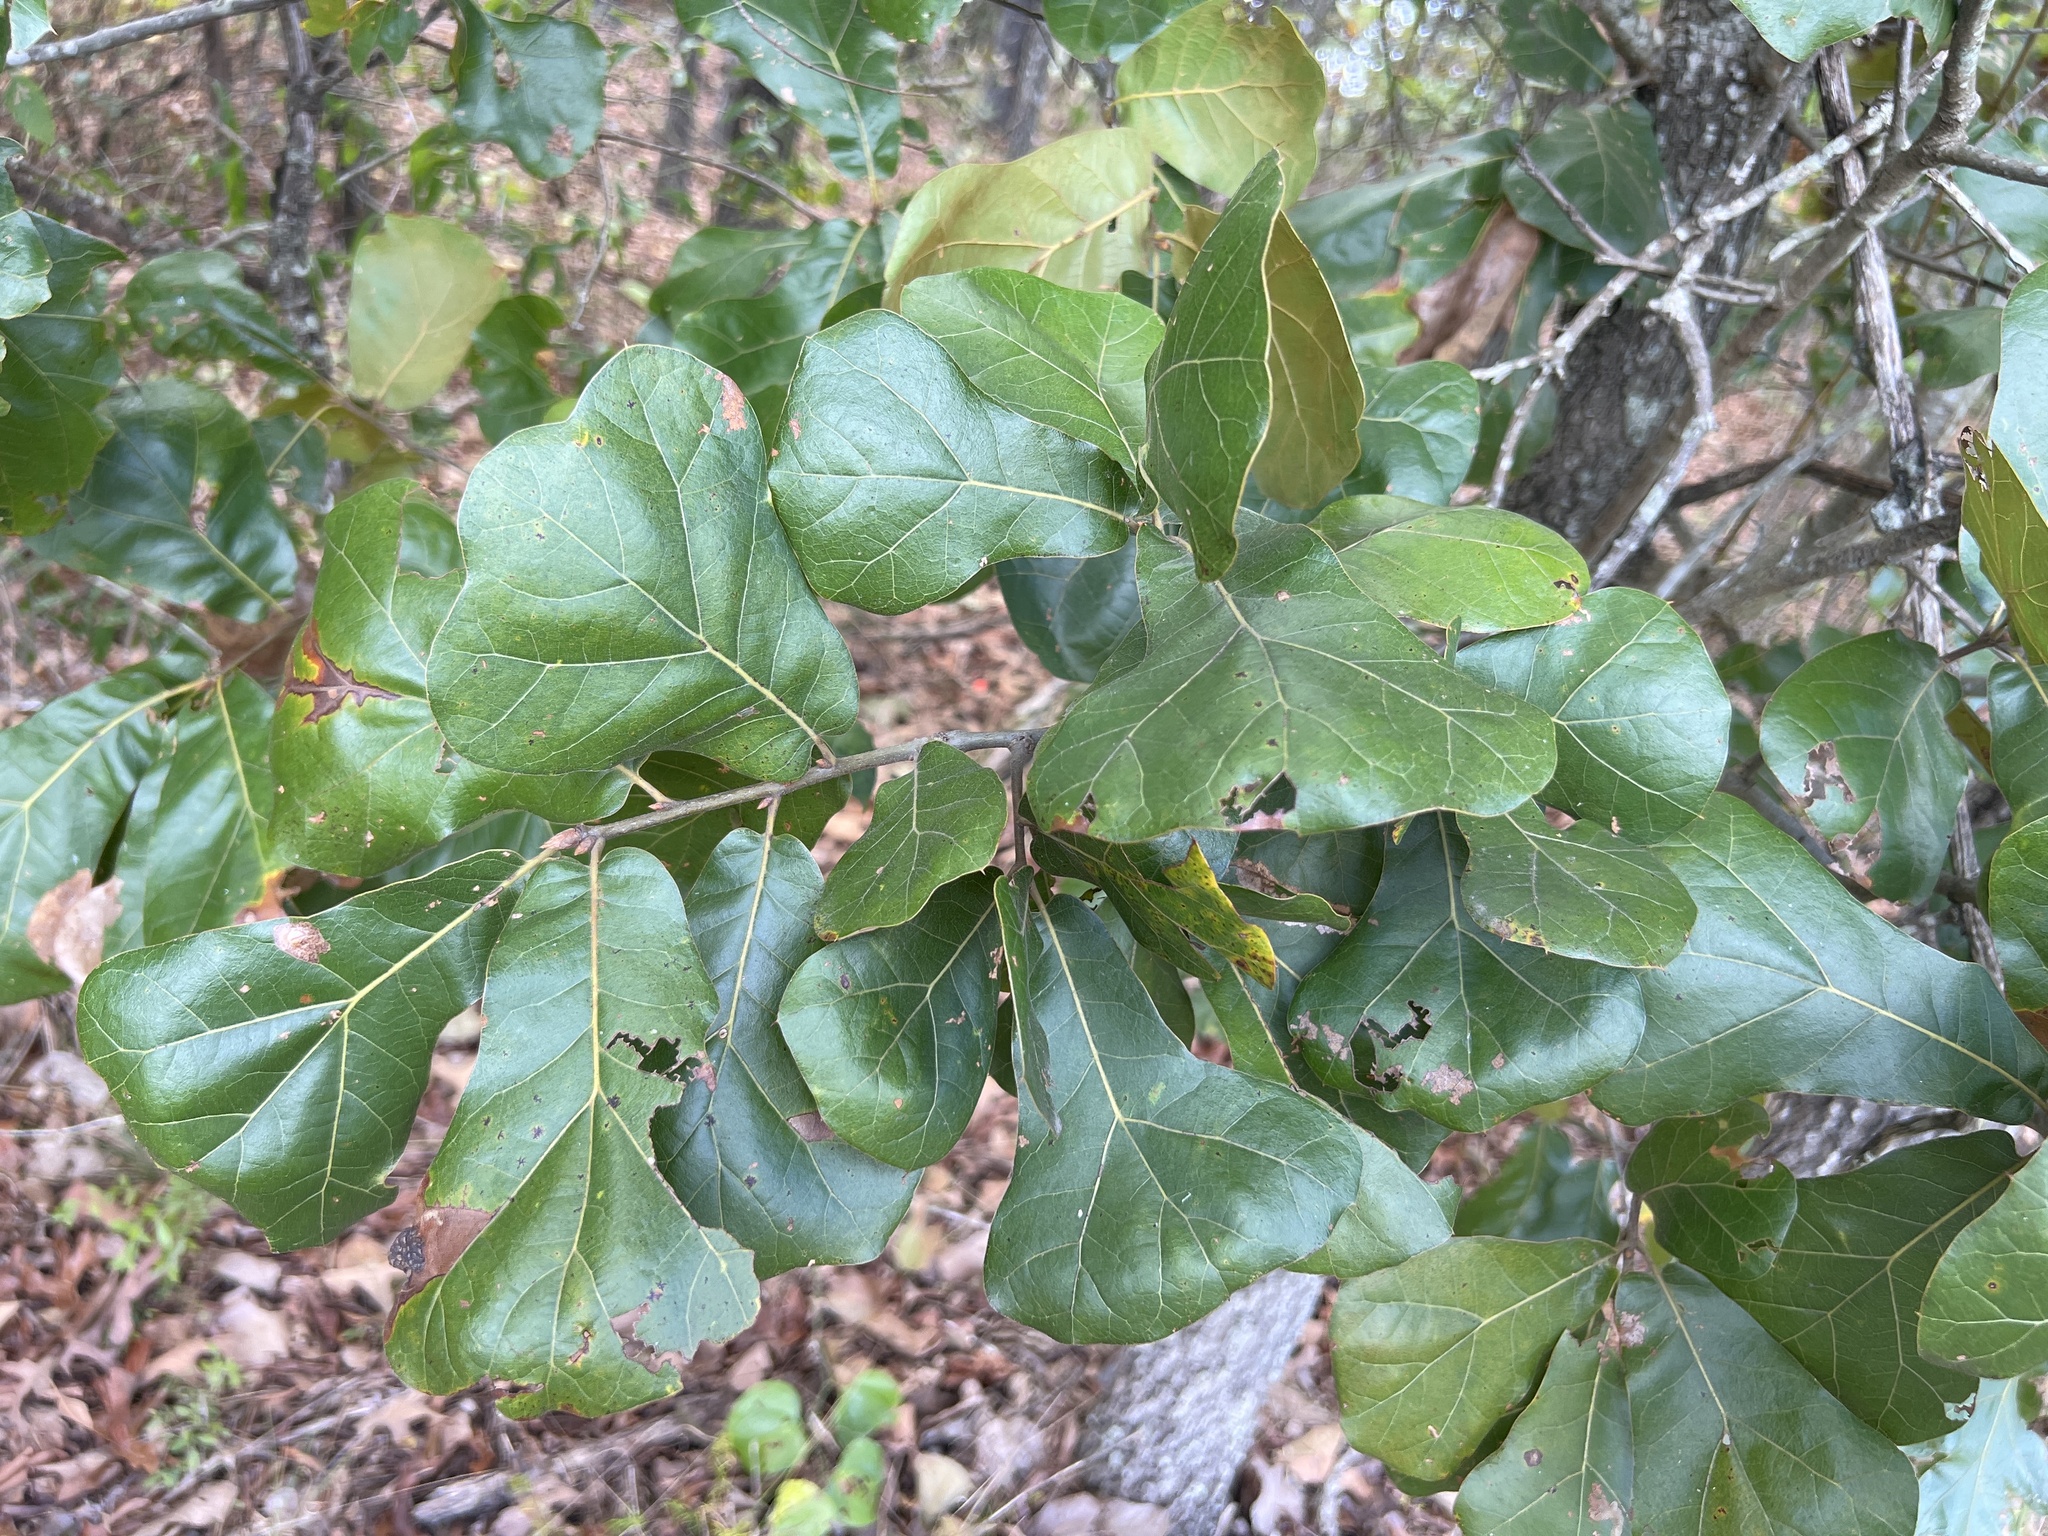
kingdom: Plantae
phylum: Tracheophyta
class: Magnoliopsida
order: Fagales
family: Fagaceae
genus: Quercus
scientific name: Quercus marilandica
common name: Blackjack oak
